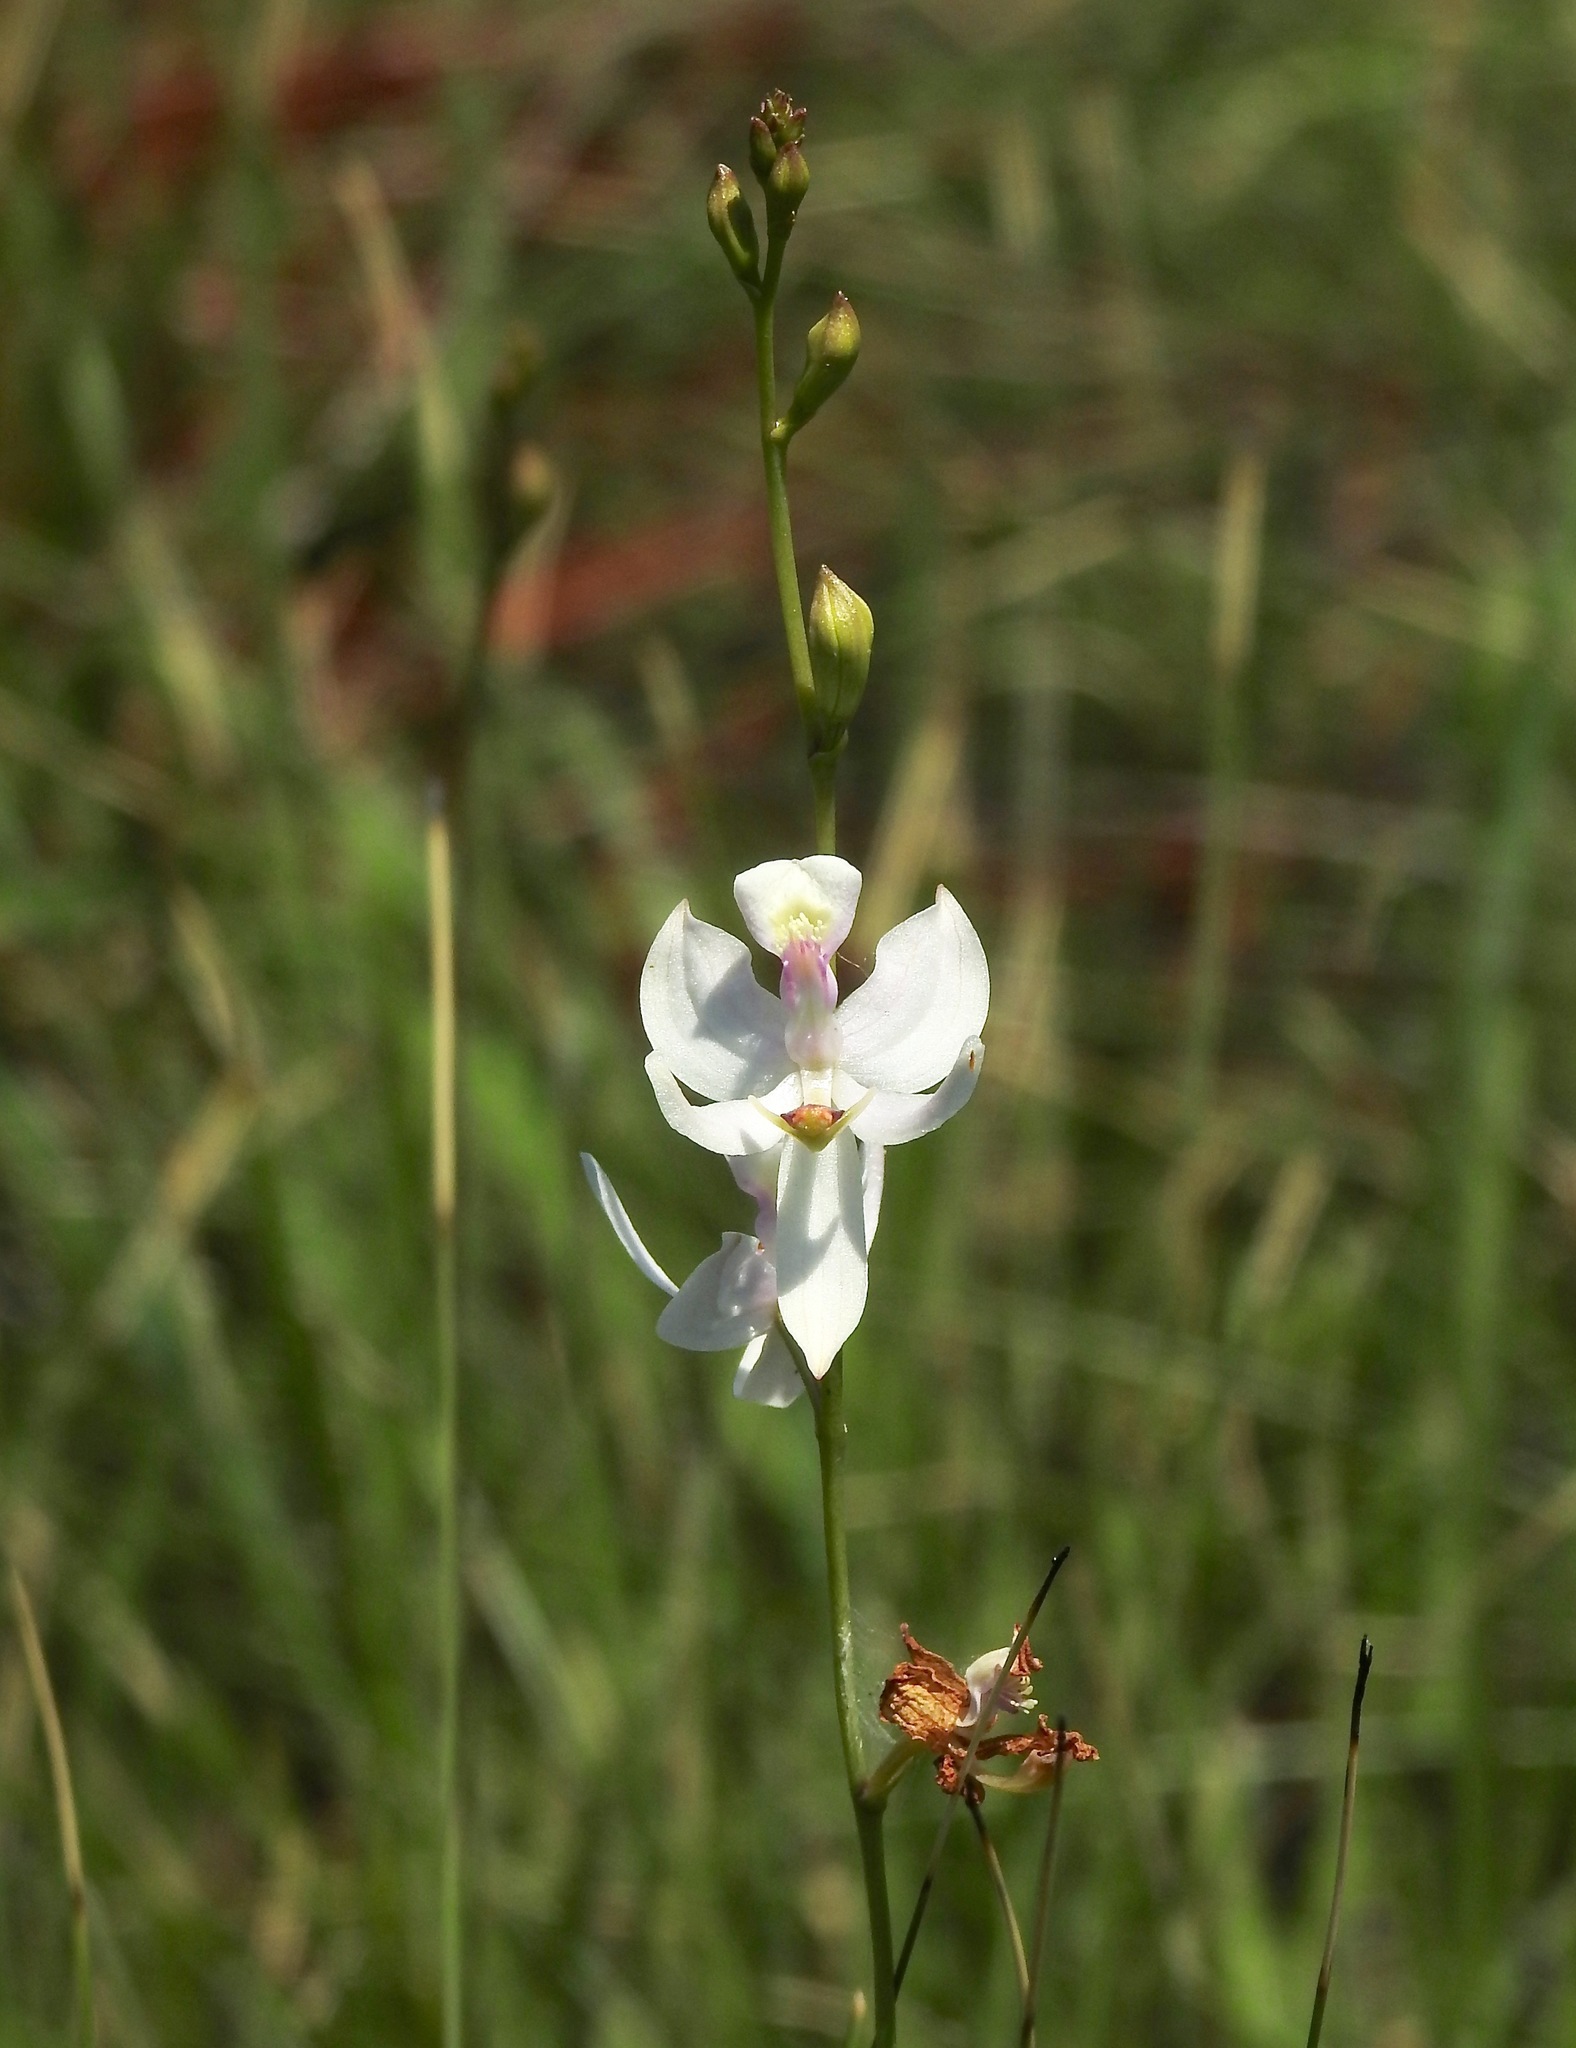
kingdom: Plantae
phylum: Tracheophyta
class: Liliopsida
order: Asparagales
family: Orchidaceae
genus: Calopogon
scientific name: Calopogon pallidus
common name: Pale grasspink
